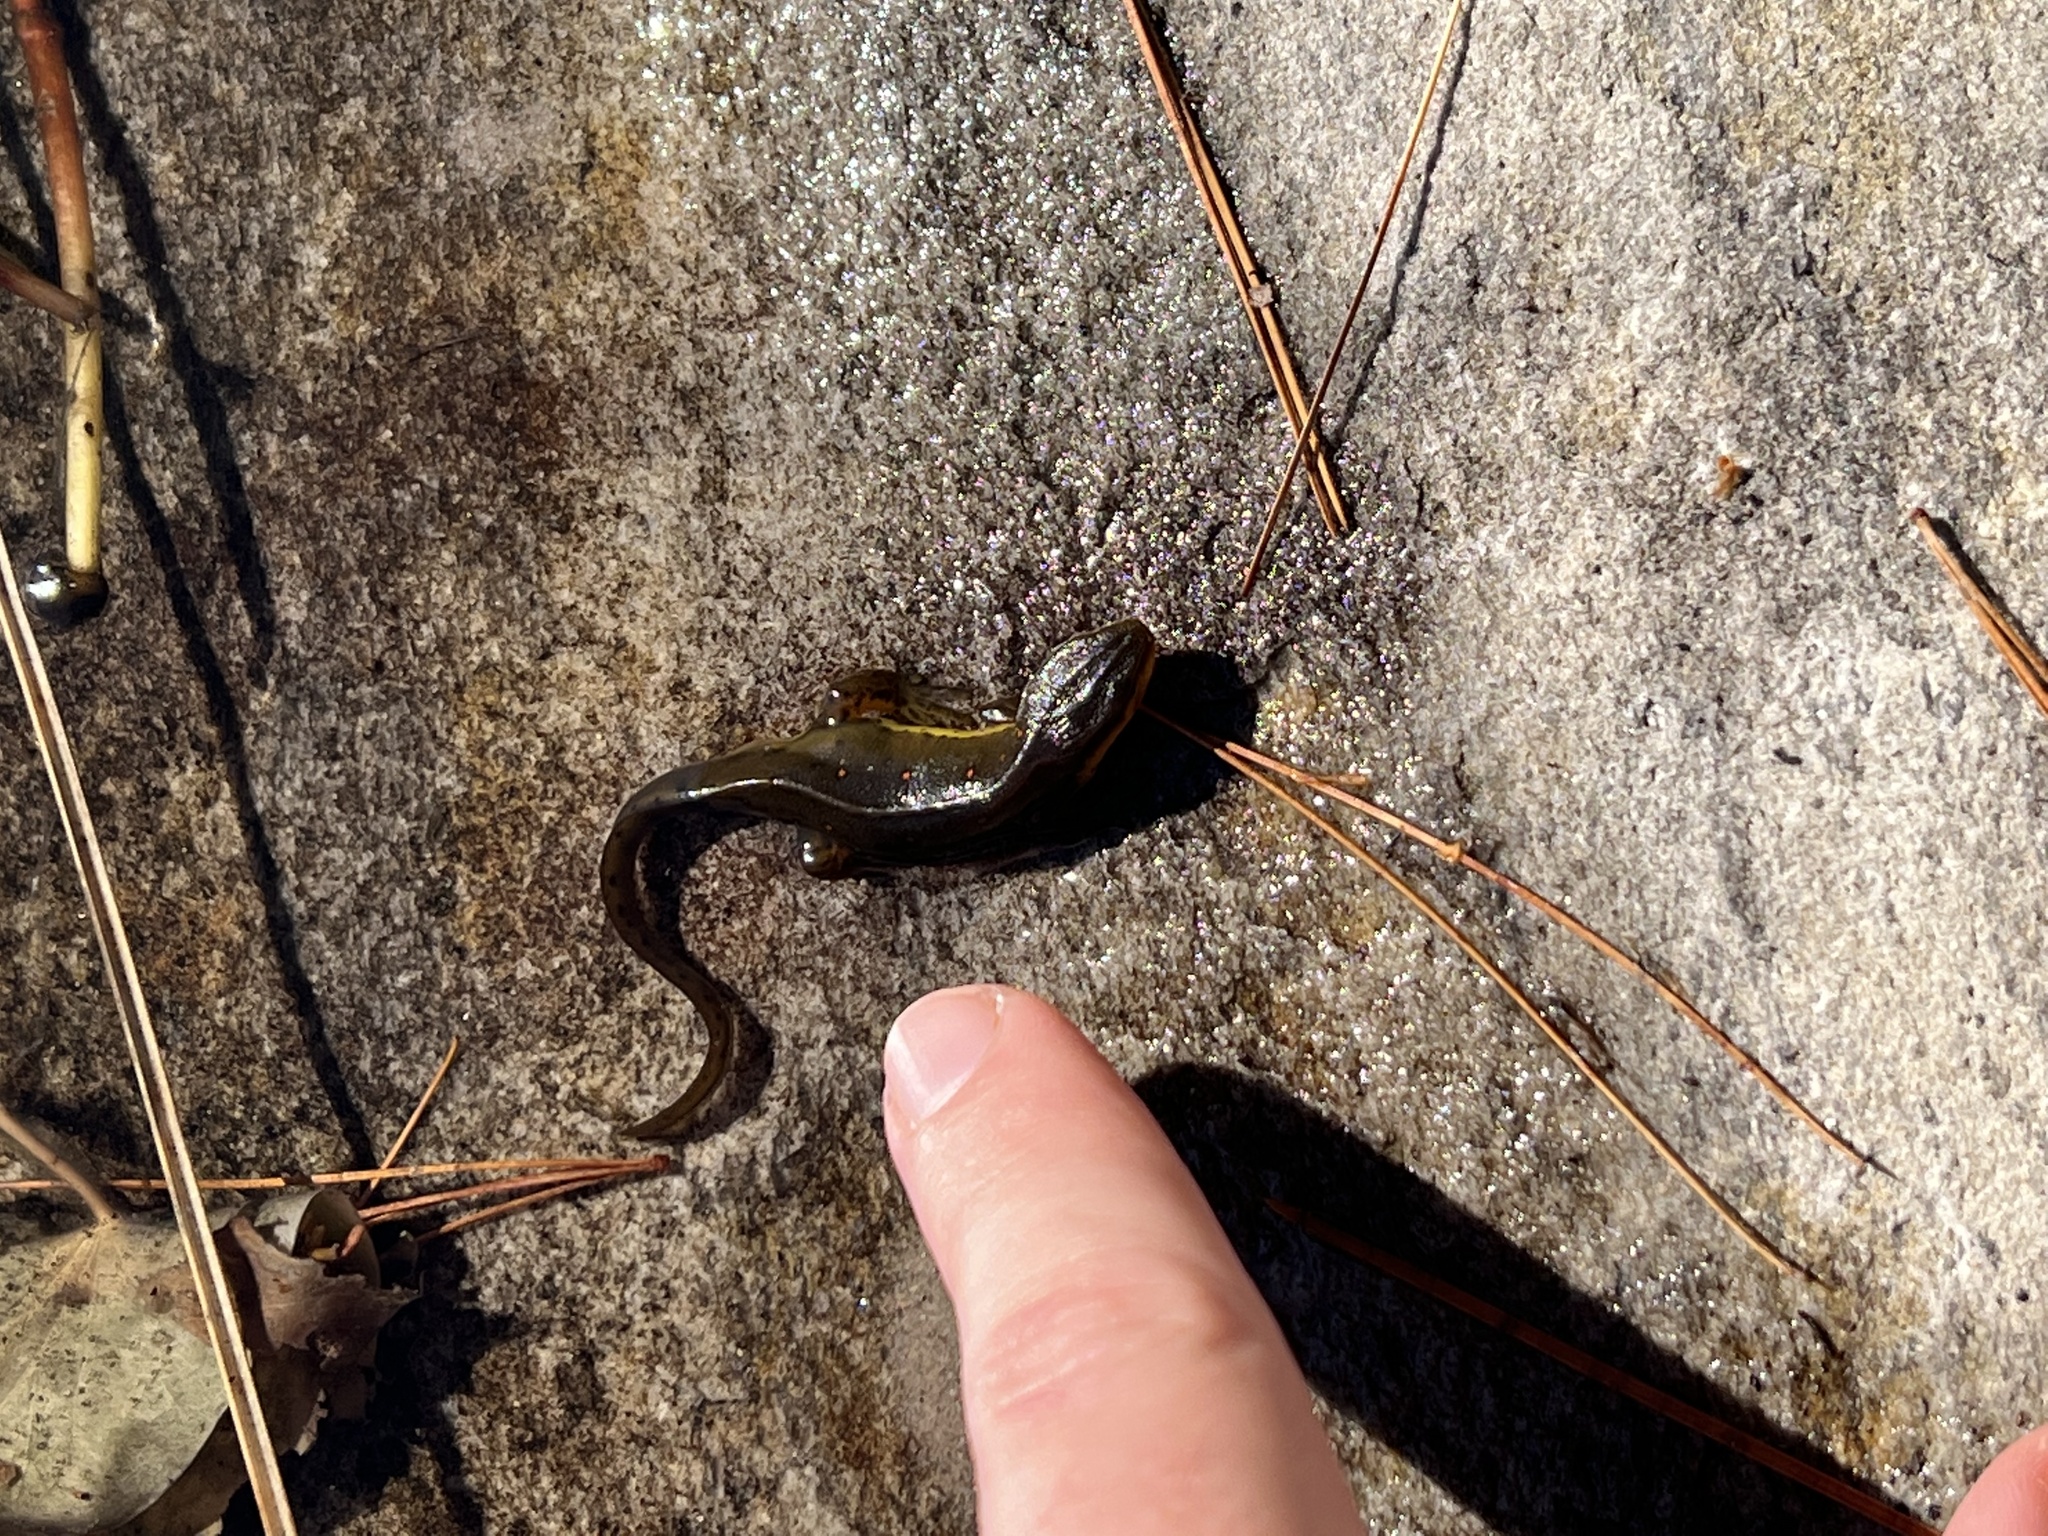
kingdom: Animalia
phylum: Chordata
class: Amphibia
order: Caudata
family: Salamandridae
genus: Notophthalmus
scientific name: Notophthalmus viridescens
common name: Eastern newt
